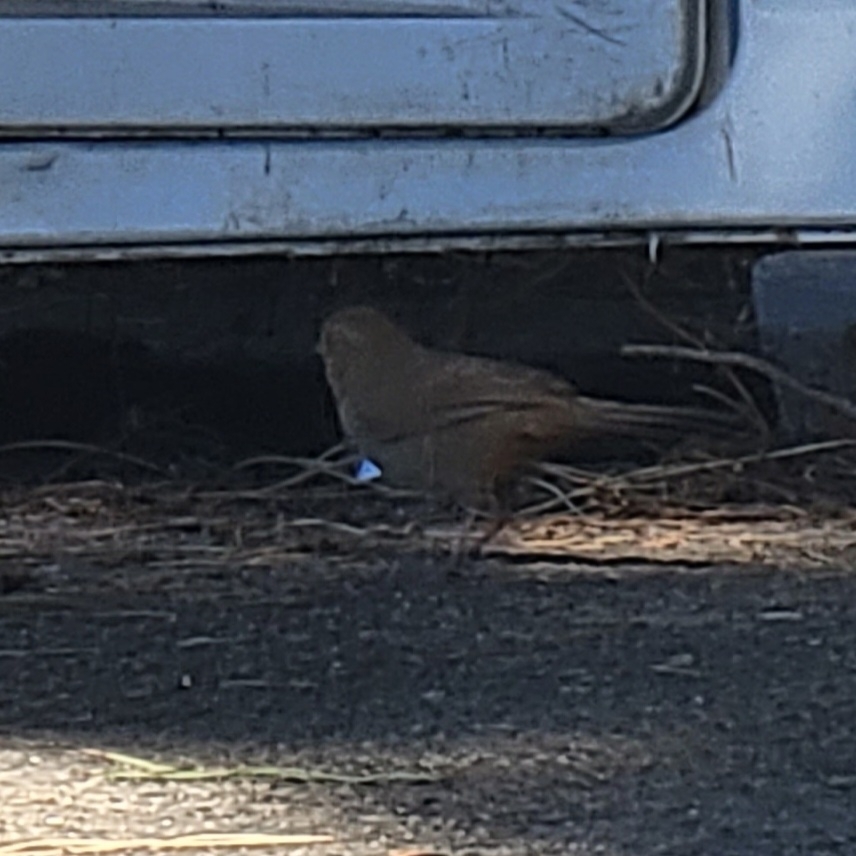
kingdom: Animalia
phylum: Chordata
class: Aves
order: Passeriformes
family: Passerellidae
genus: Melozone
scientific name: Melozone crissalis
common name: California towhee
